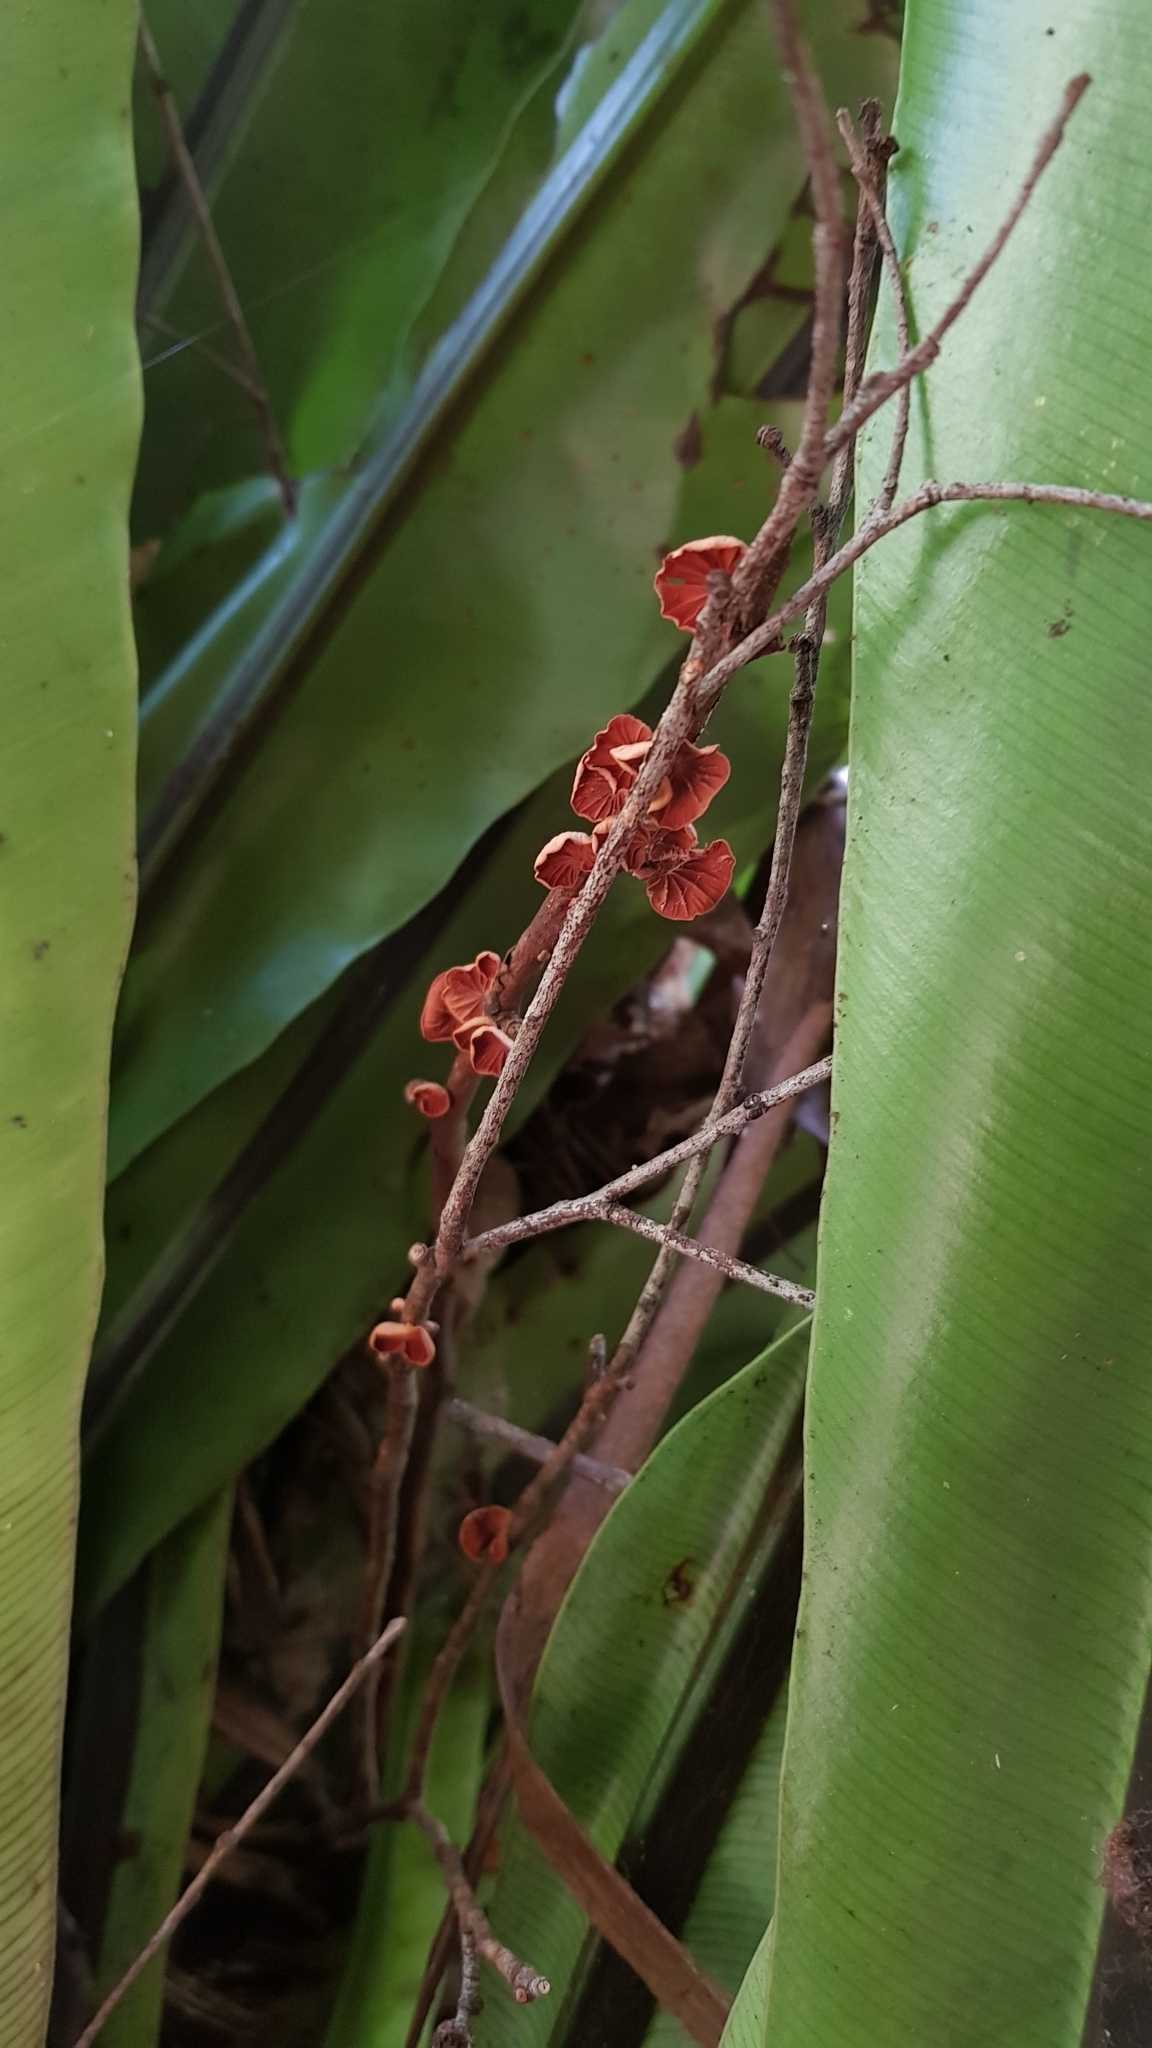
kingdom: Fungi
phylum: Basidiomycota
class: Agaricomycetes
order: Agaricales
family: Omphalotaceae
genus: Anthracophyllum
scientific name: Anthracophyllum archeri
